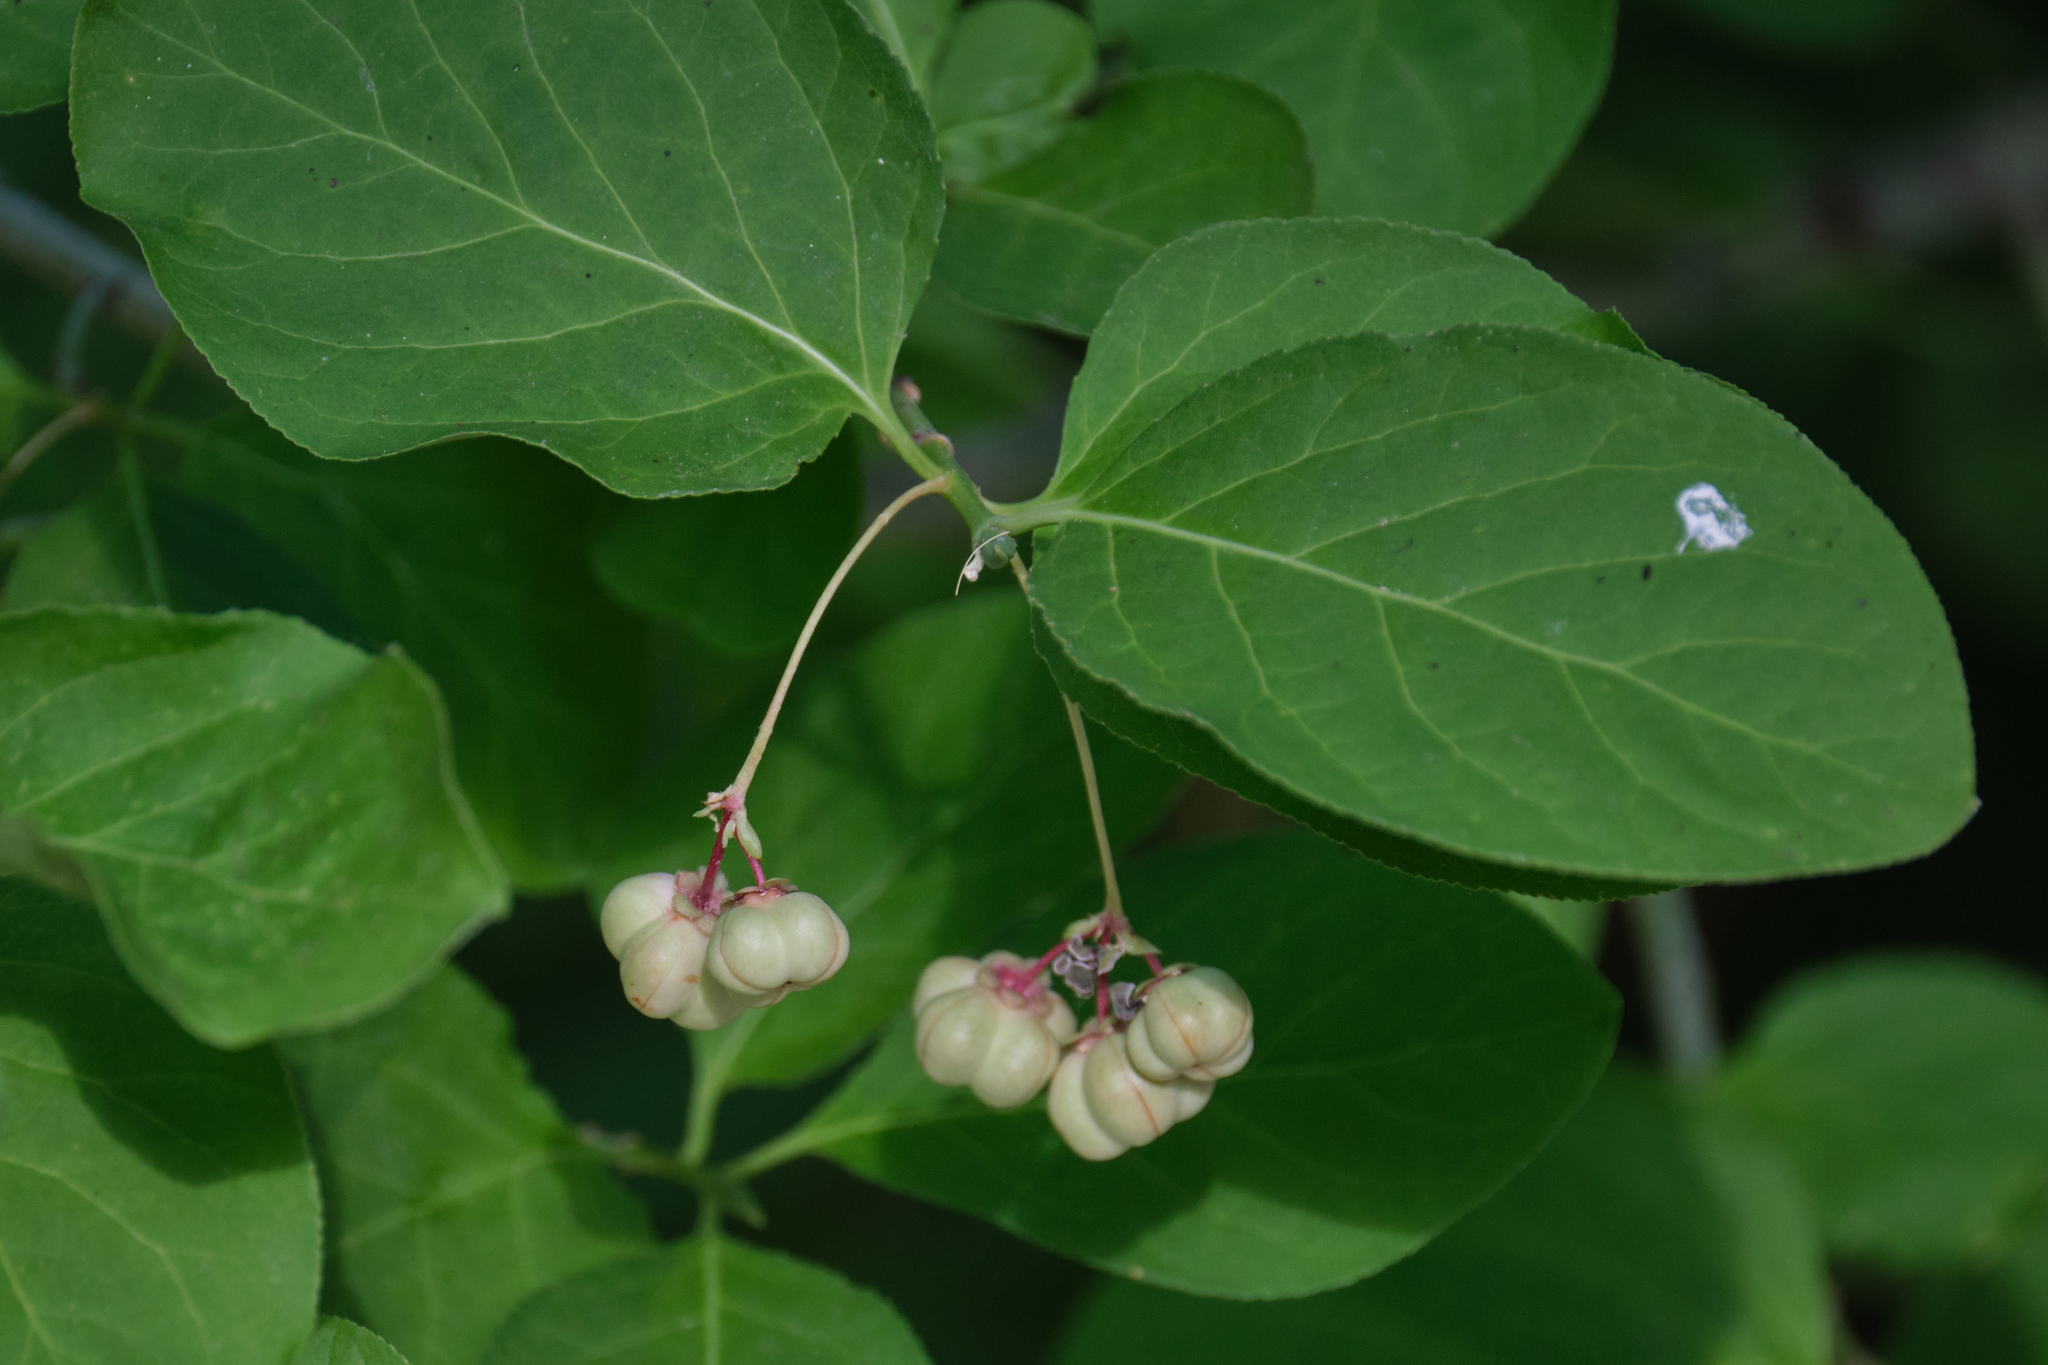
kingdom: Plantae
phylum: Tracheophyta
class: Magnoliopsida
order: Celastrales
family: Celastraceae
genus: Euonymus
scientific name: Euonymus occidentalis
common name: Western burningbush
